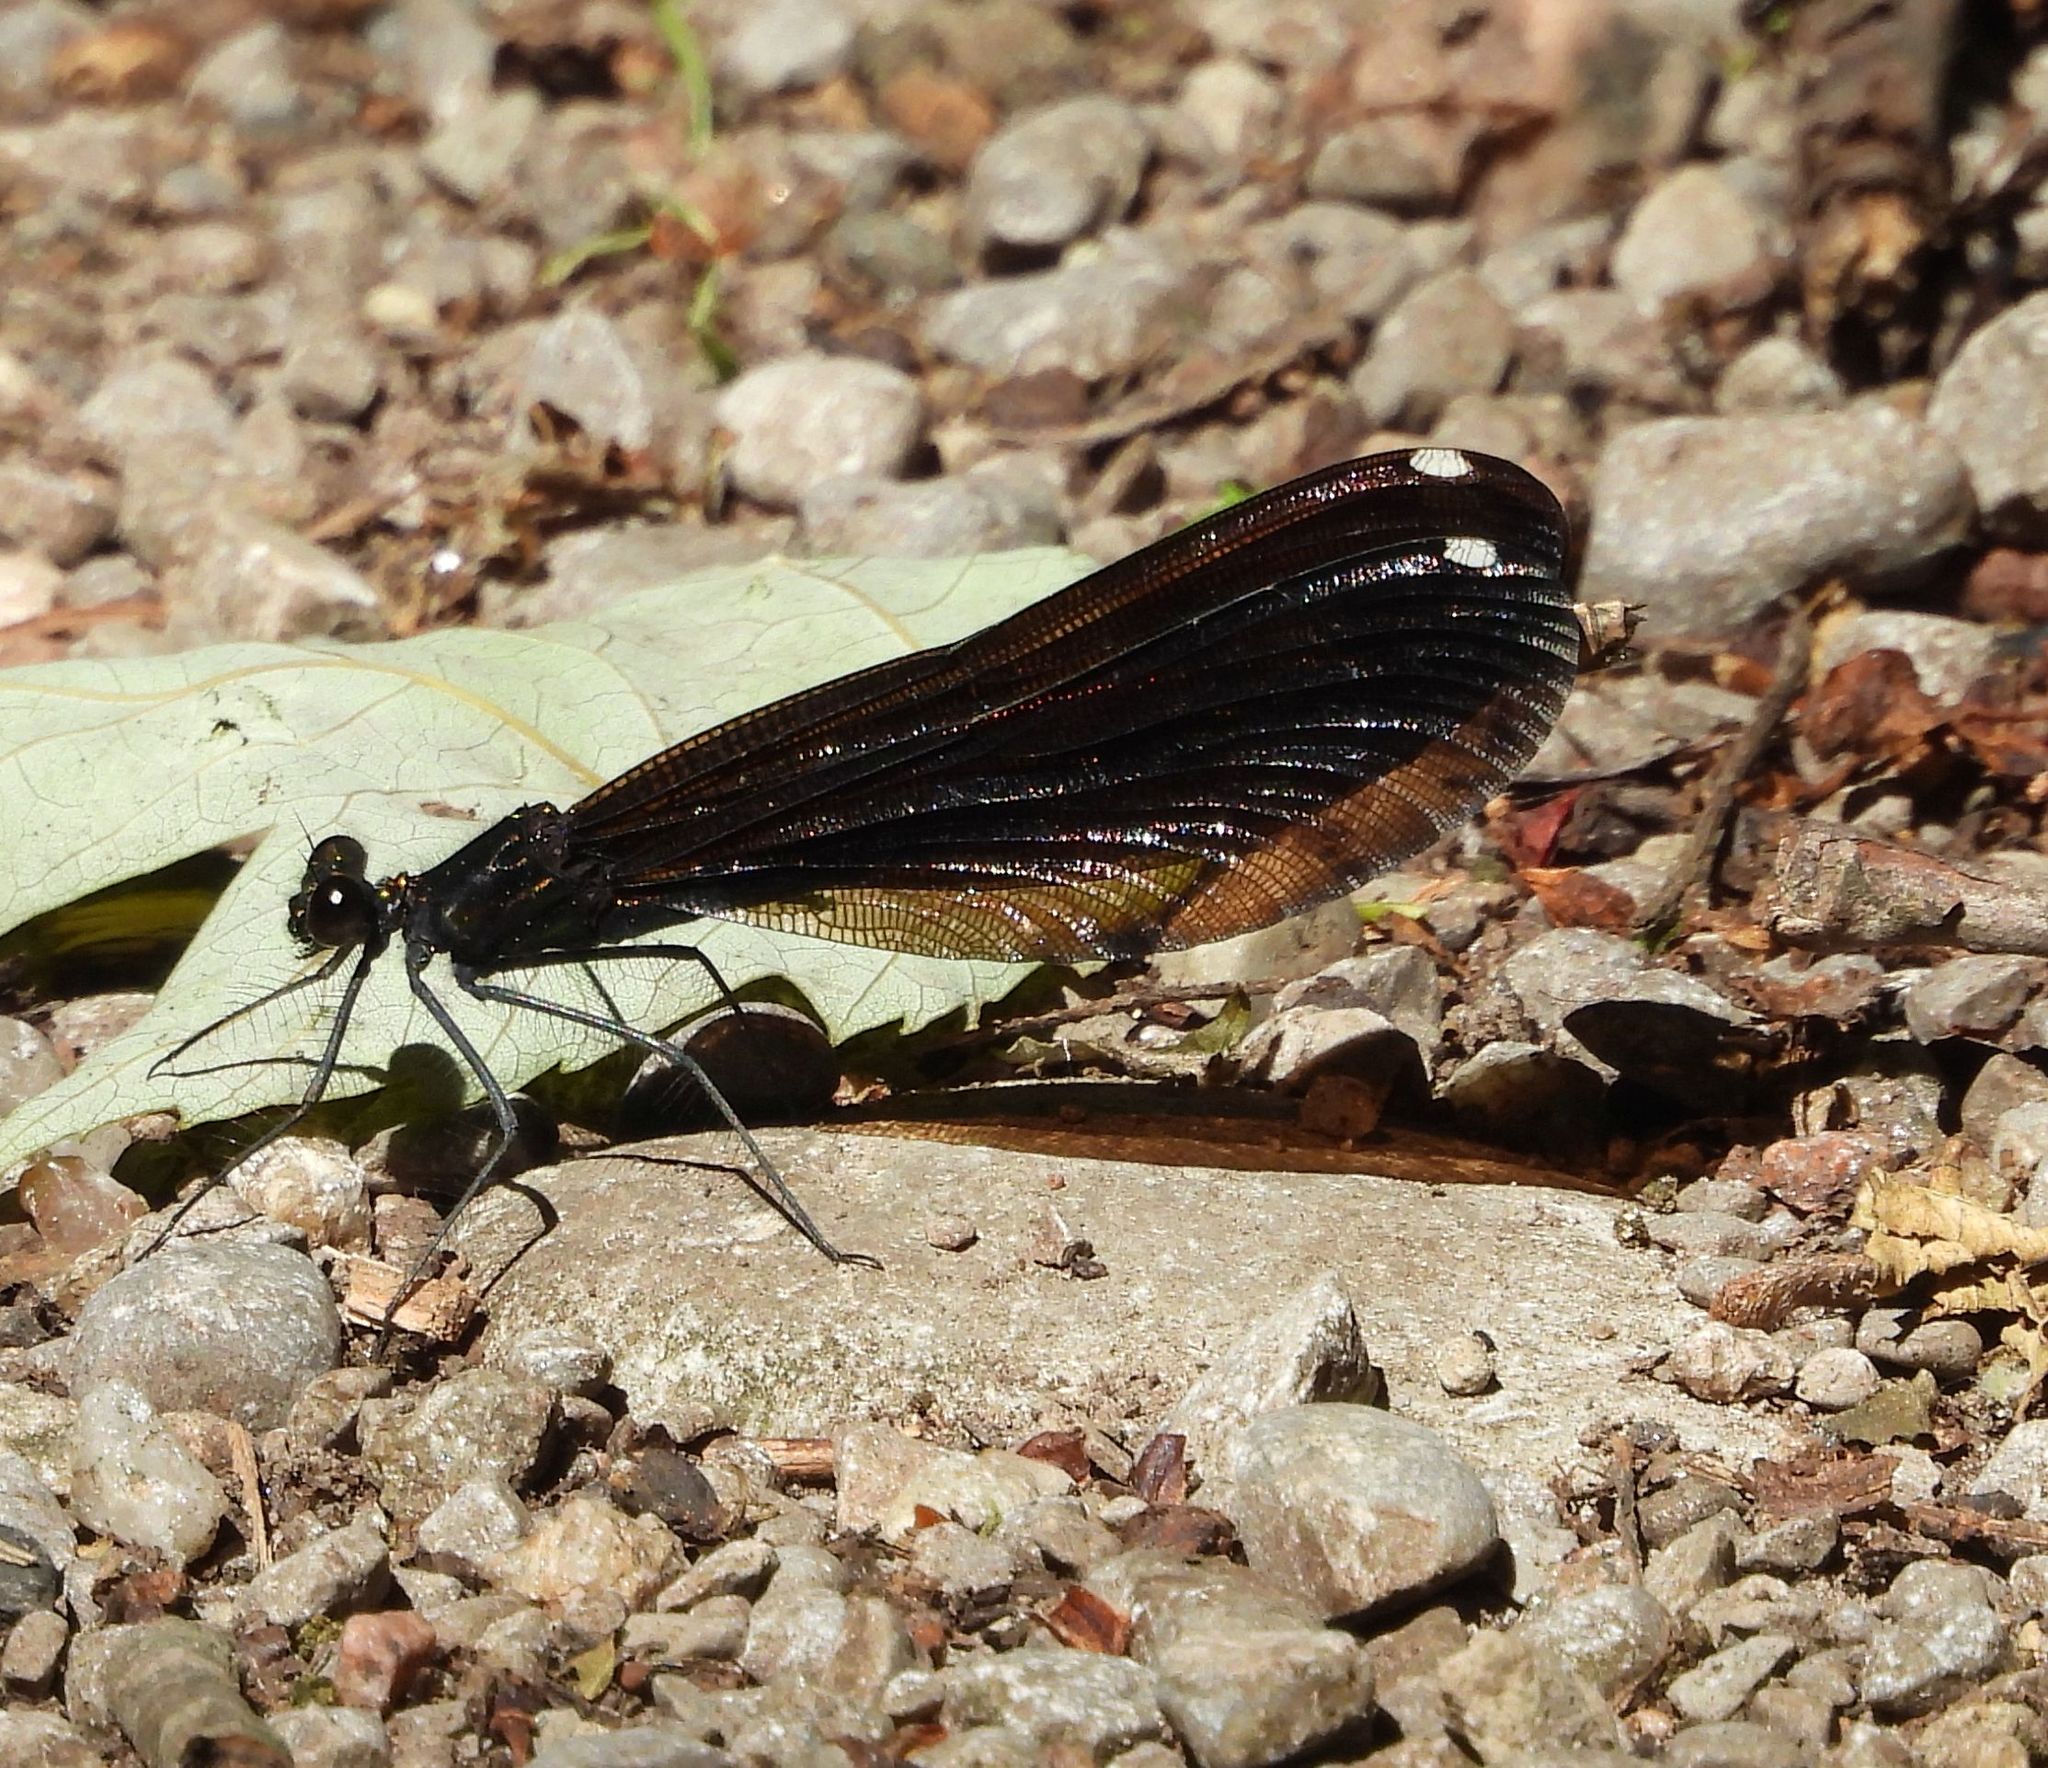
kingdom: Animalia
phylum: Arthropoda
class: Insecta
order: Odonata
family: Calopterygidae
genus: Calopteryx
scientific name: Calopteryx maculata
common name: Ebony jewelwing
